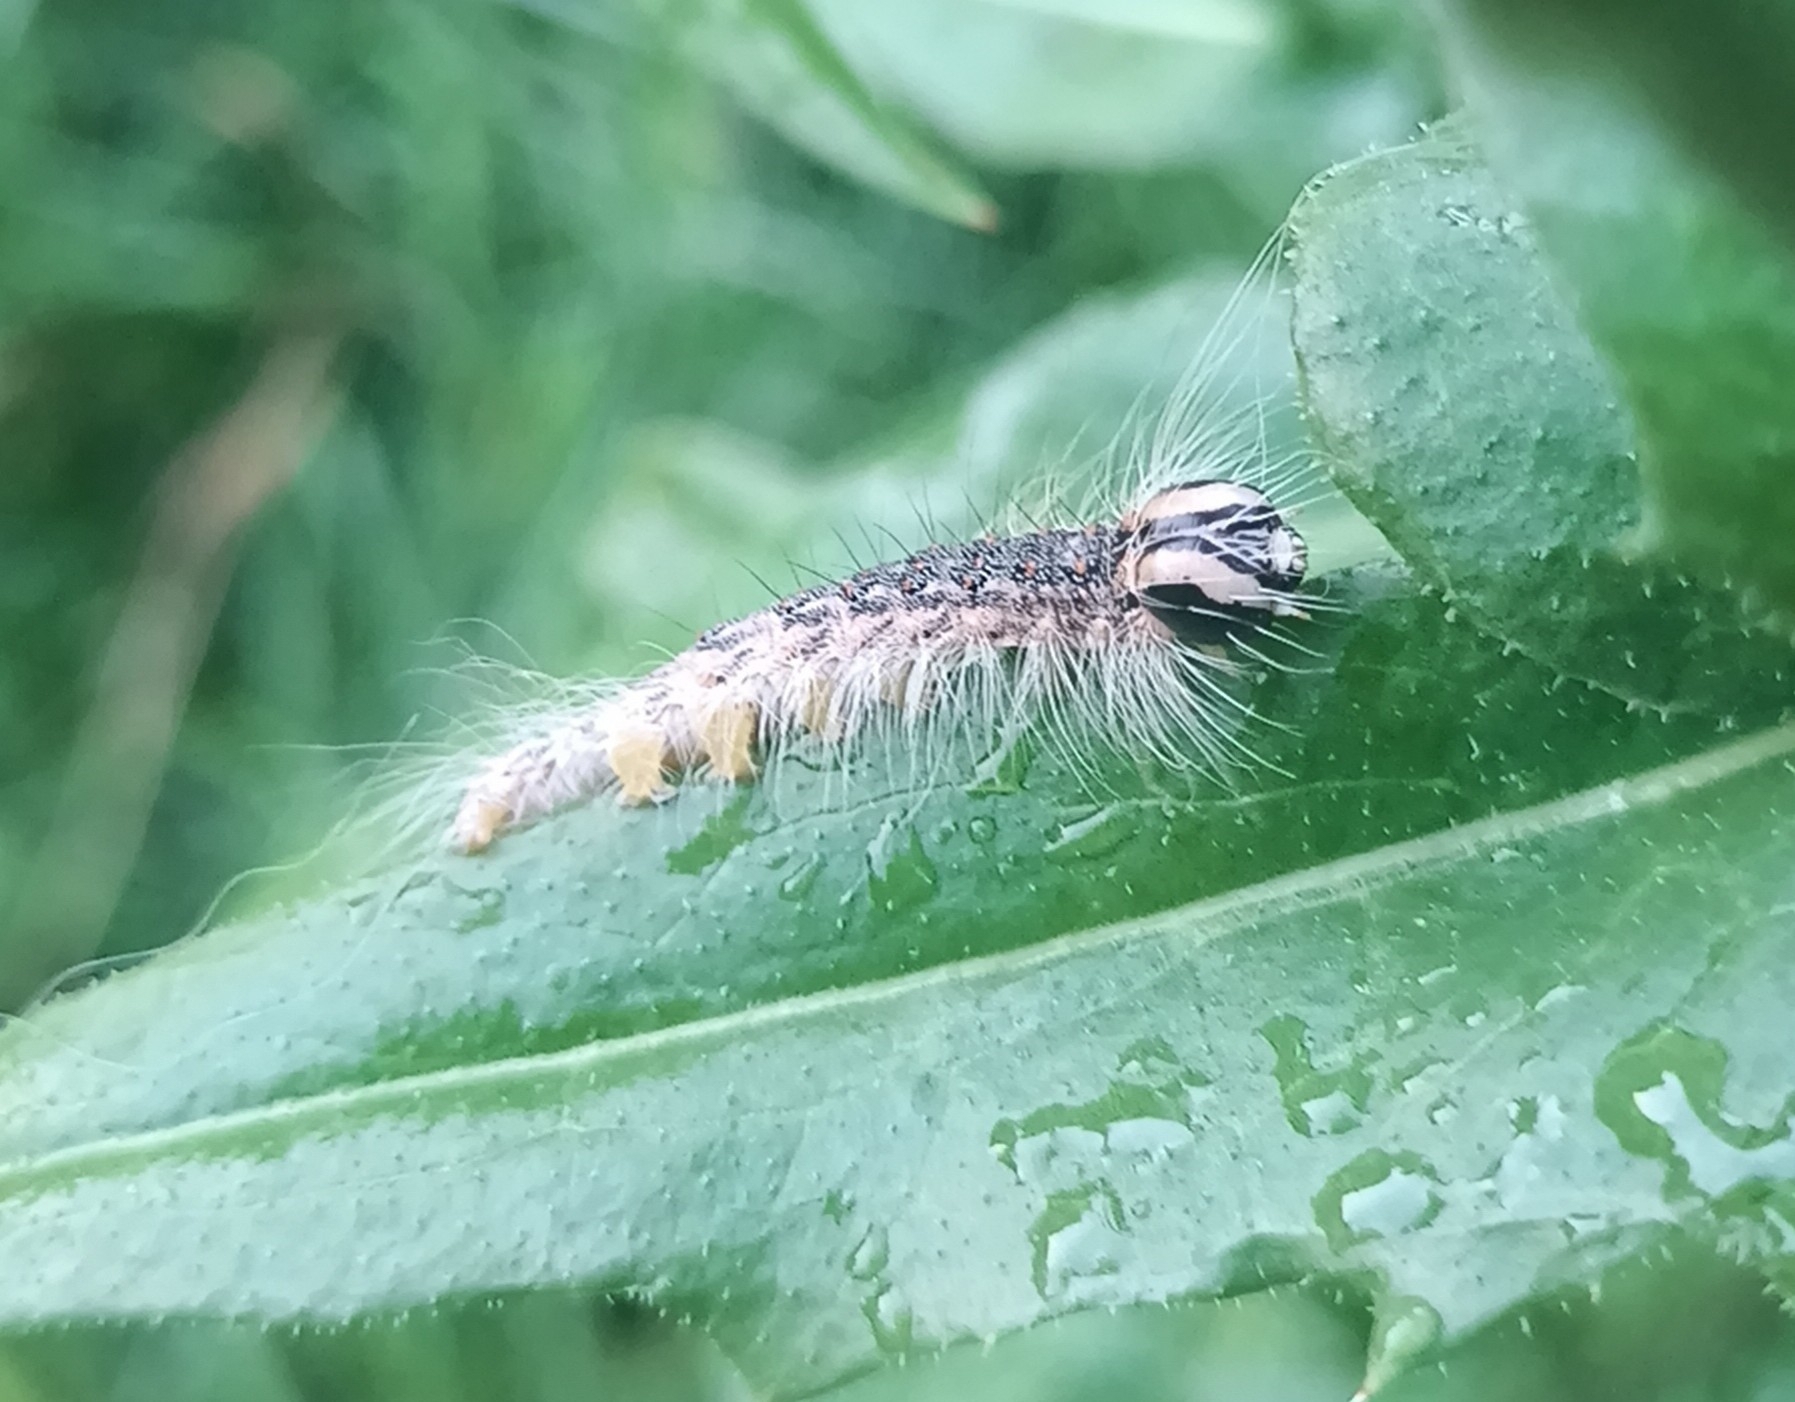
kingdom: Animalia
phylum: Arthropoda
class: Insecta
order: Lepidoptera
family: Noctuidae
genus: Acronicta
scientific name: Acronicta megacephala
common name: Poplar grey
